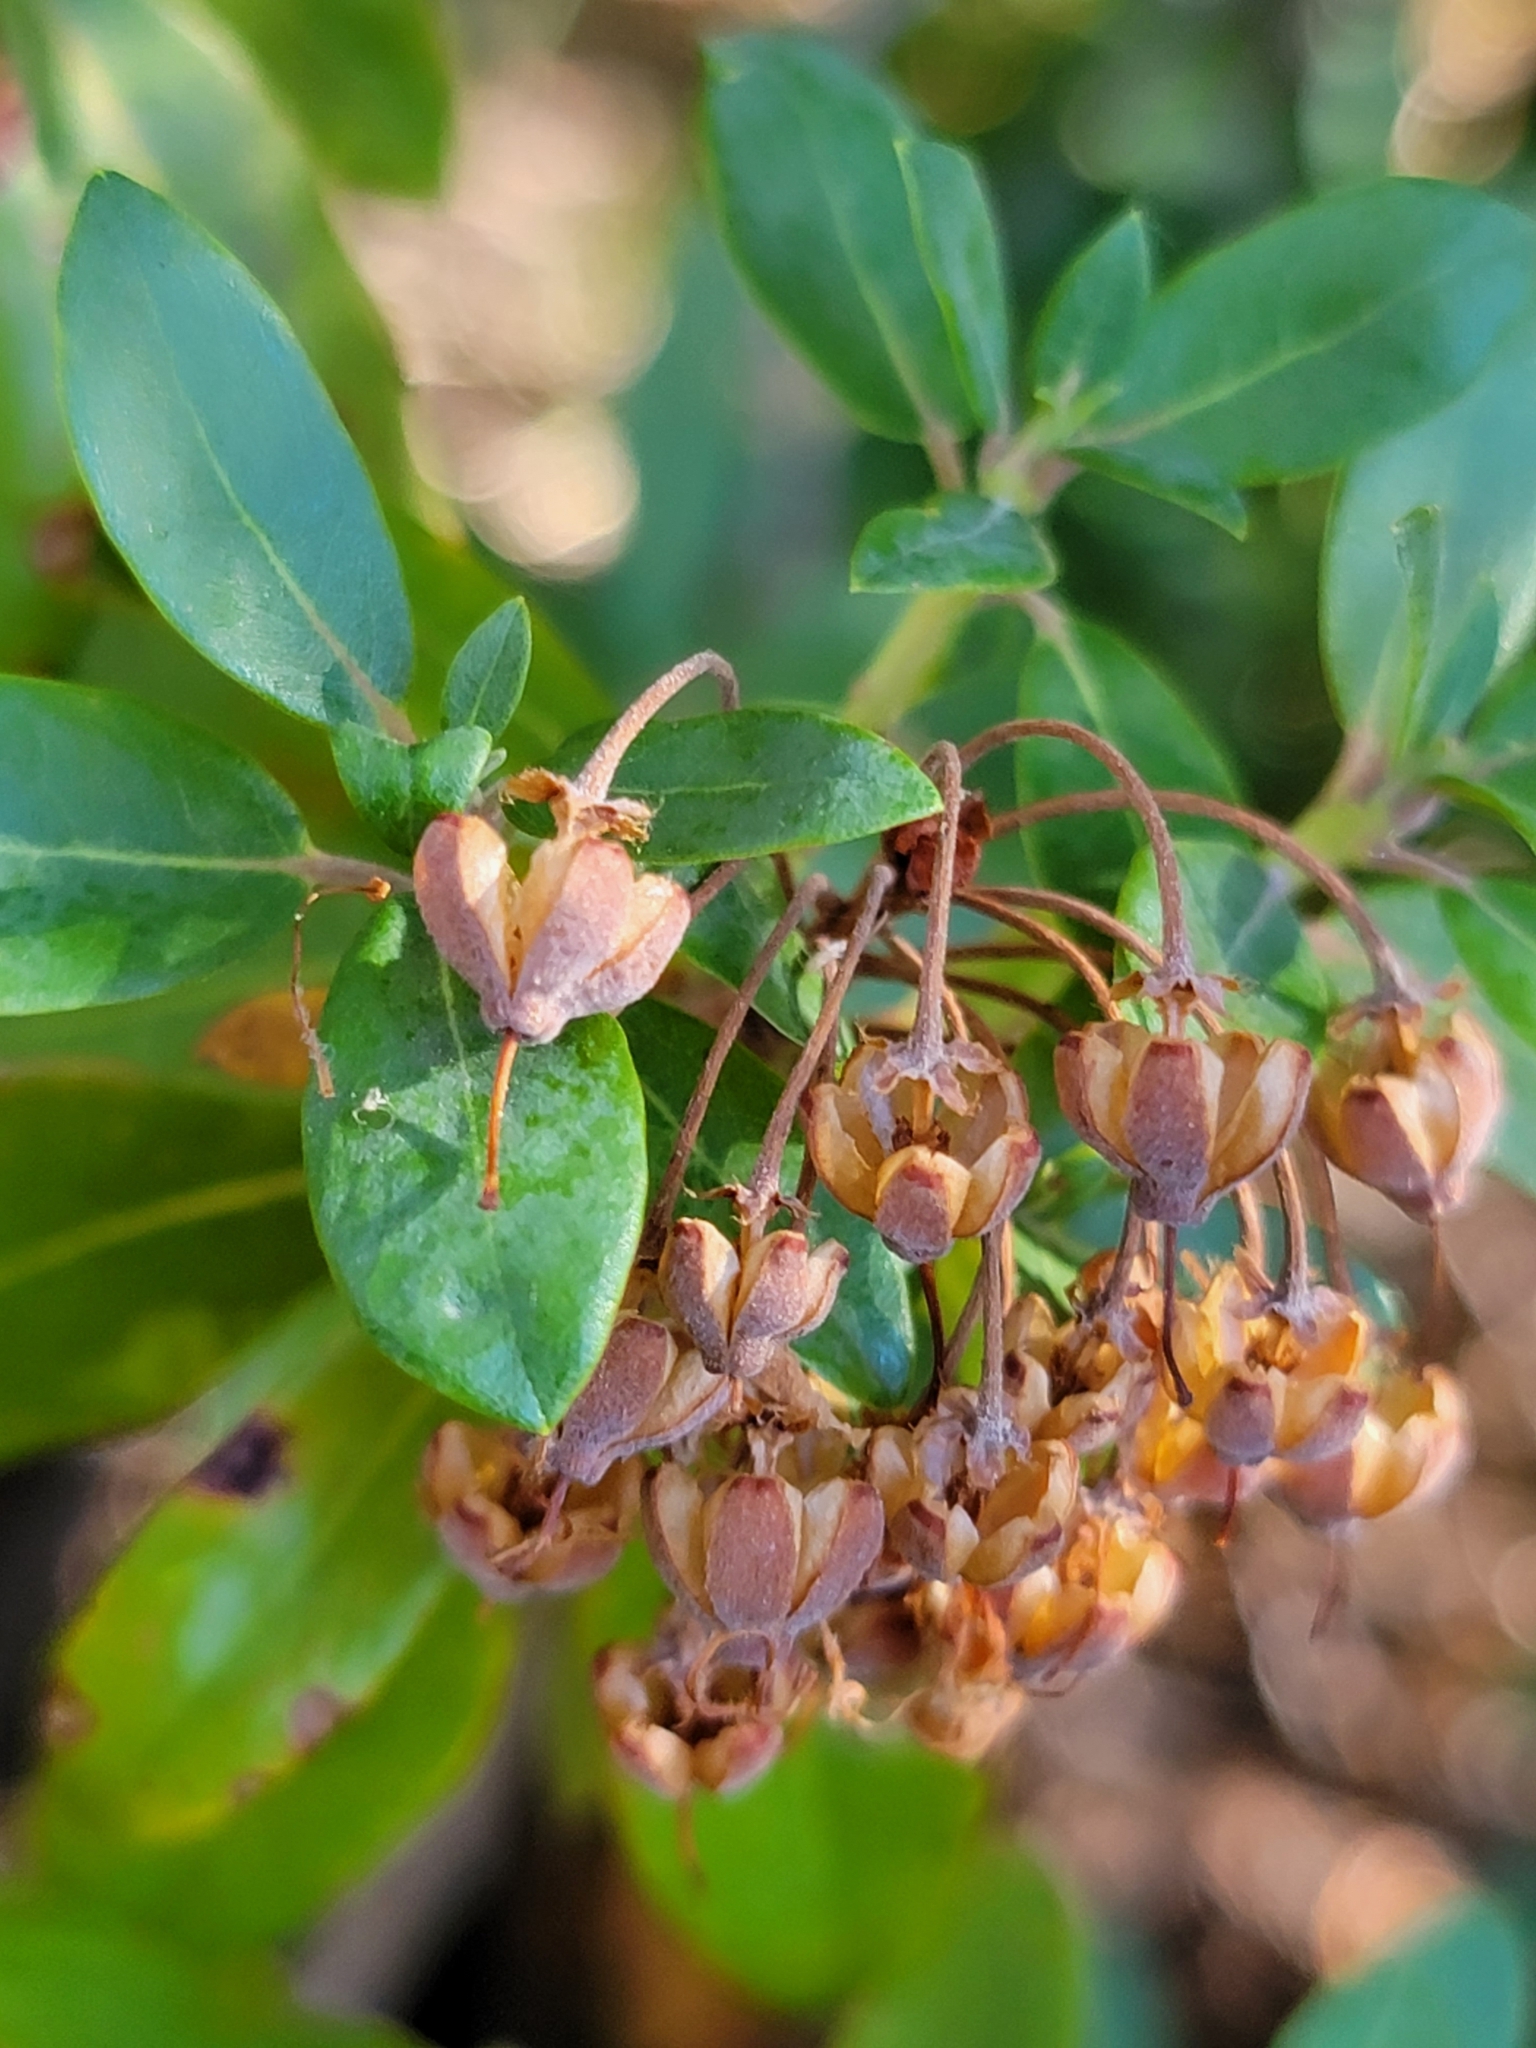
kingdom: Plantae
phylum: Tracheophyta
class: Magnoliopsida
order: Ericales
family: Ericaceae
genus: Rhododendron
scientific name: Rhododendron columbianum
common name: Western labrador tea
